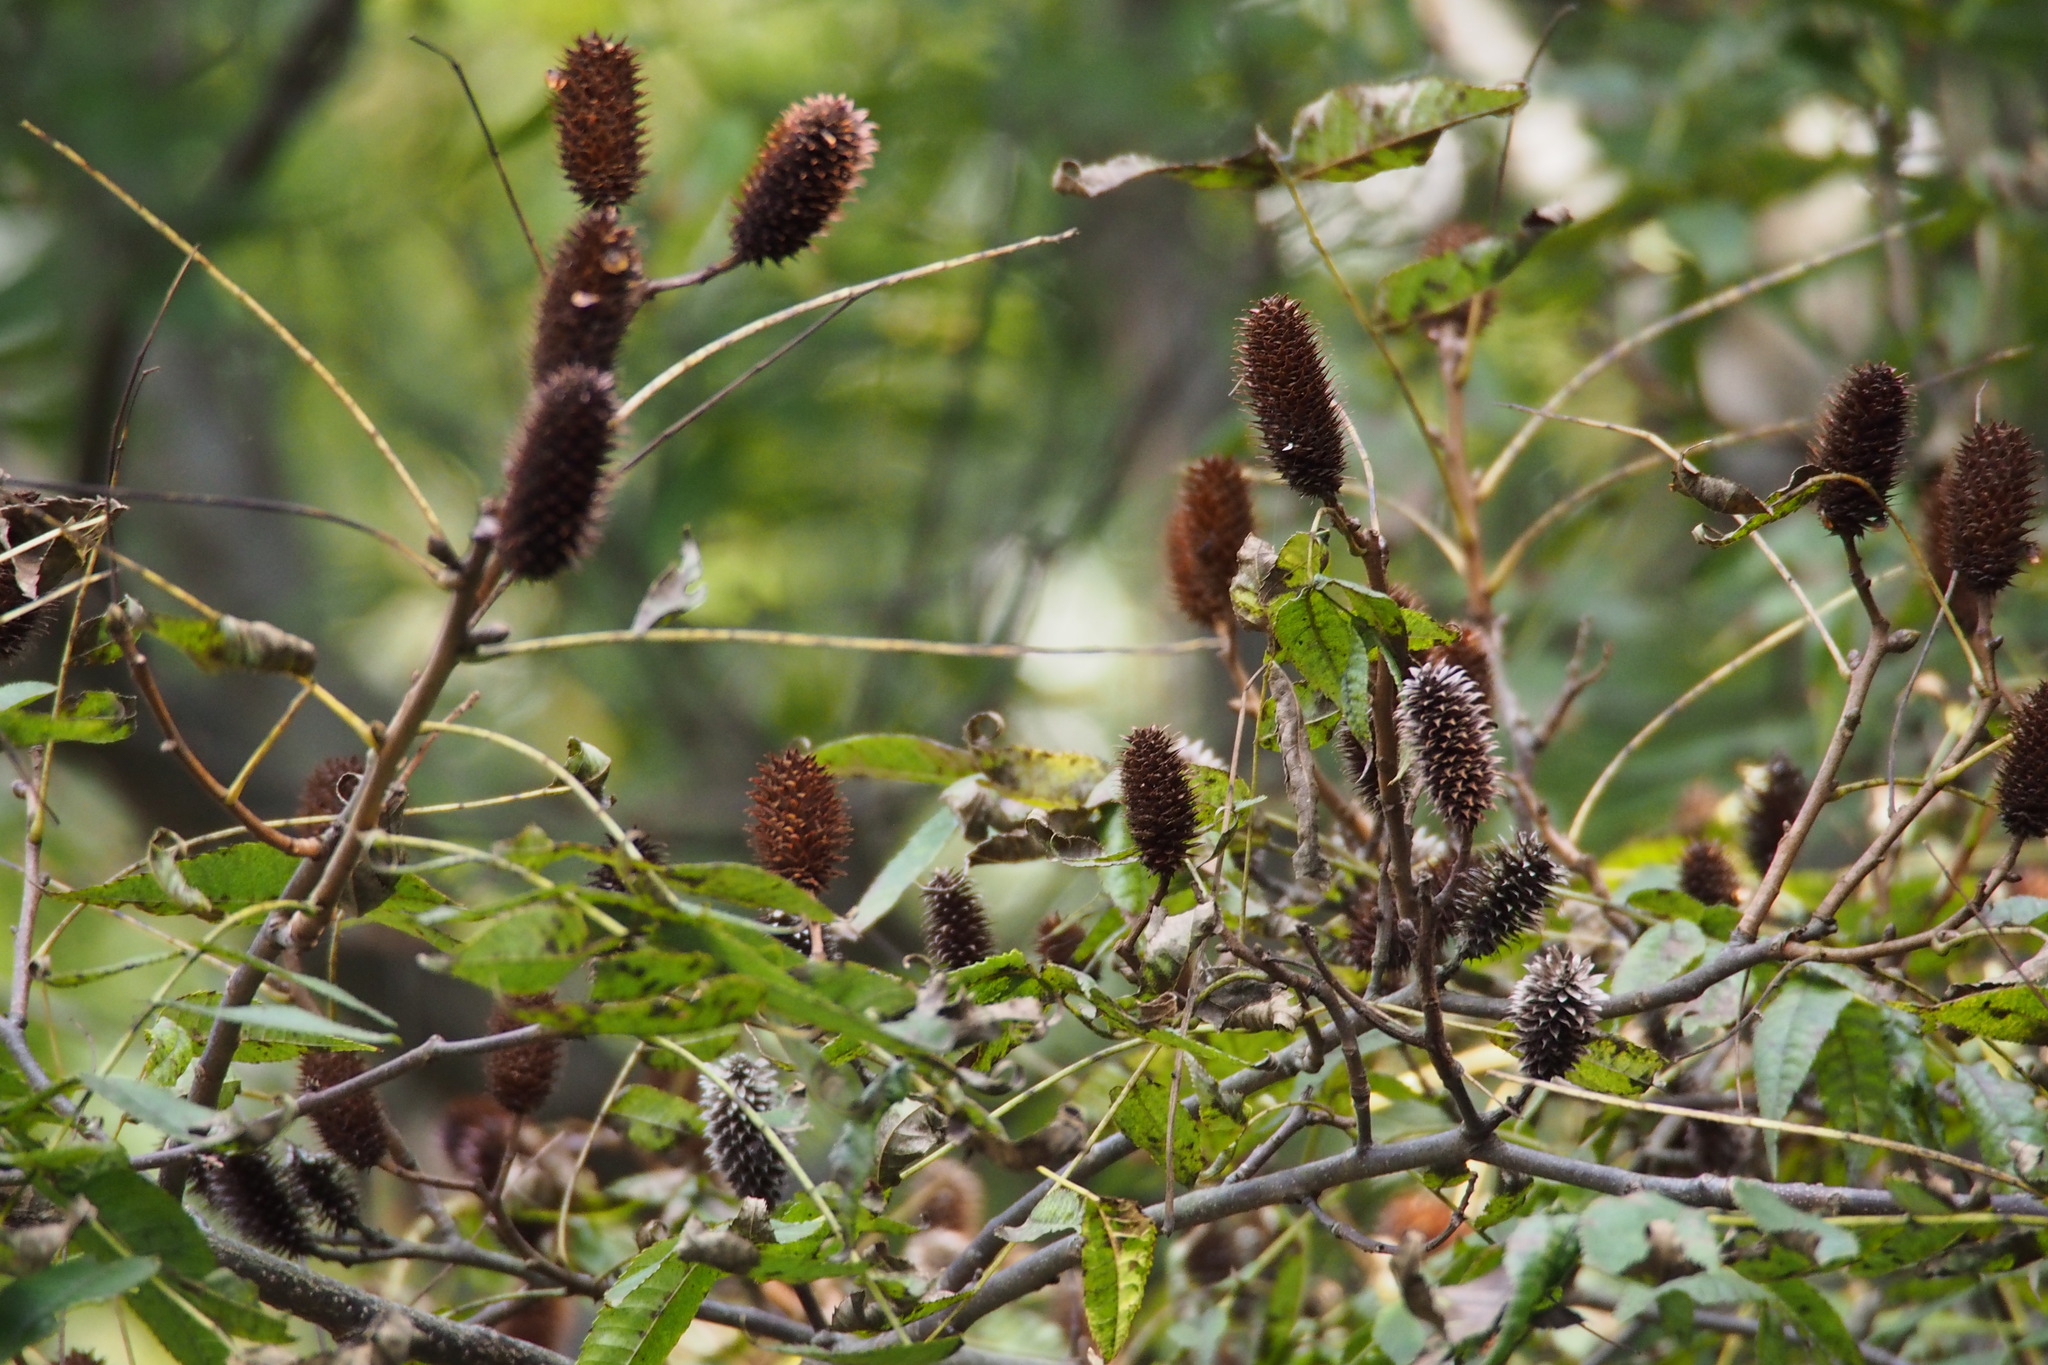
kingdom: Plantae
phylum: Tracheophyta
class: Magnoliopsida
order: Fagales
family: Juglandaceae
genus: Platycarya
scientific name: Platycarya strobilacea
